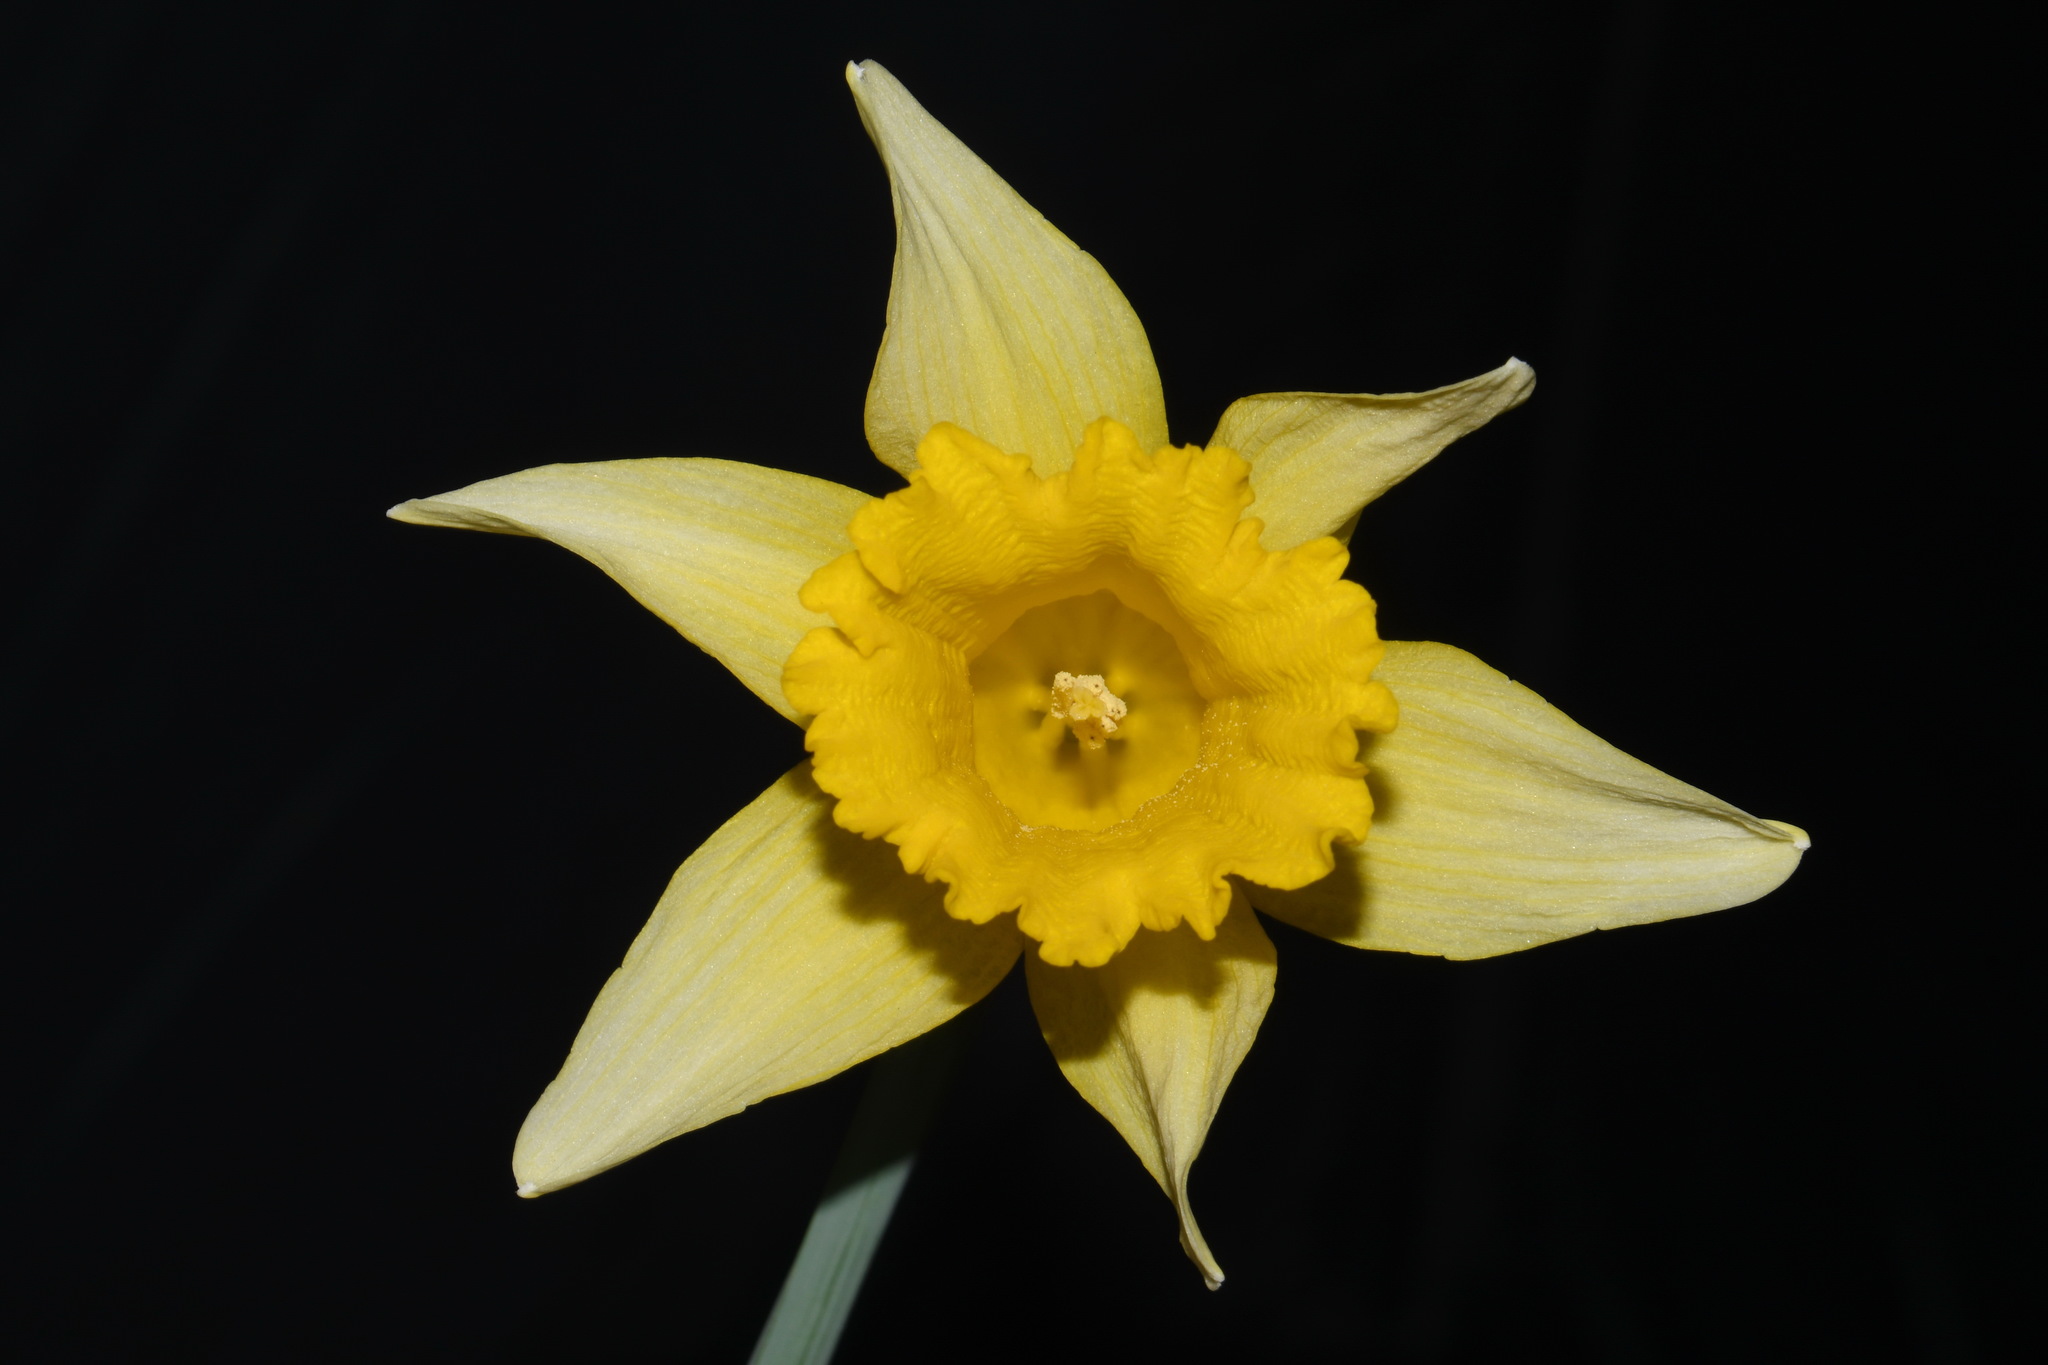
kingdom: Plantae
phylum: Tracheophyta
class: Liliopsida
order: Asparagales
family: Amaryllidaceae
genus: Narcissus
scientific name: Narcissus pseudonarcissus
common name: Daffodil
